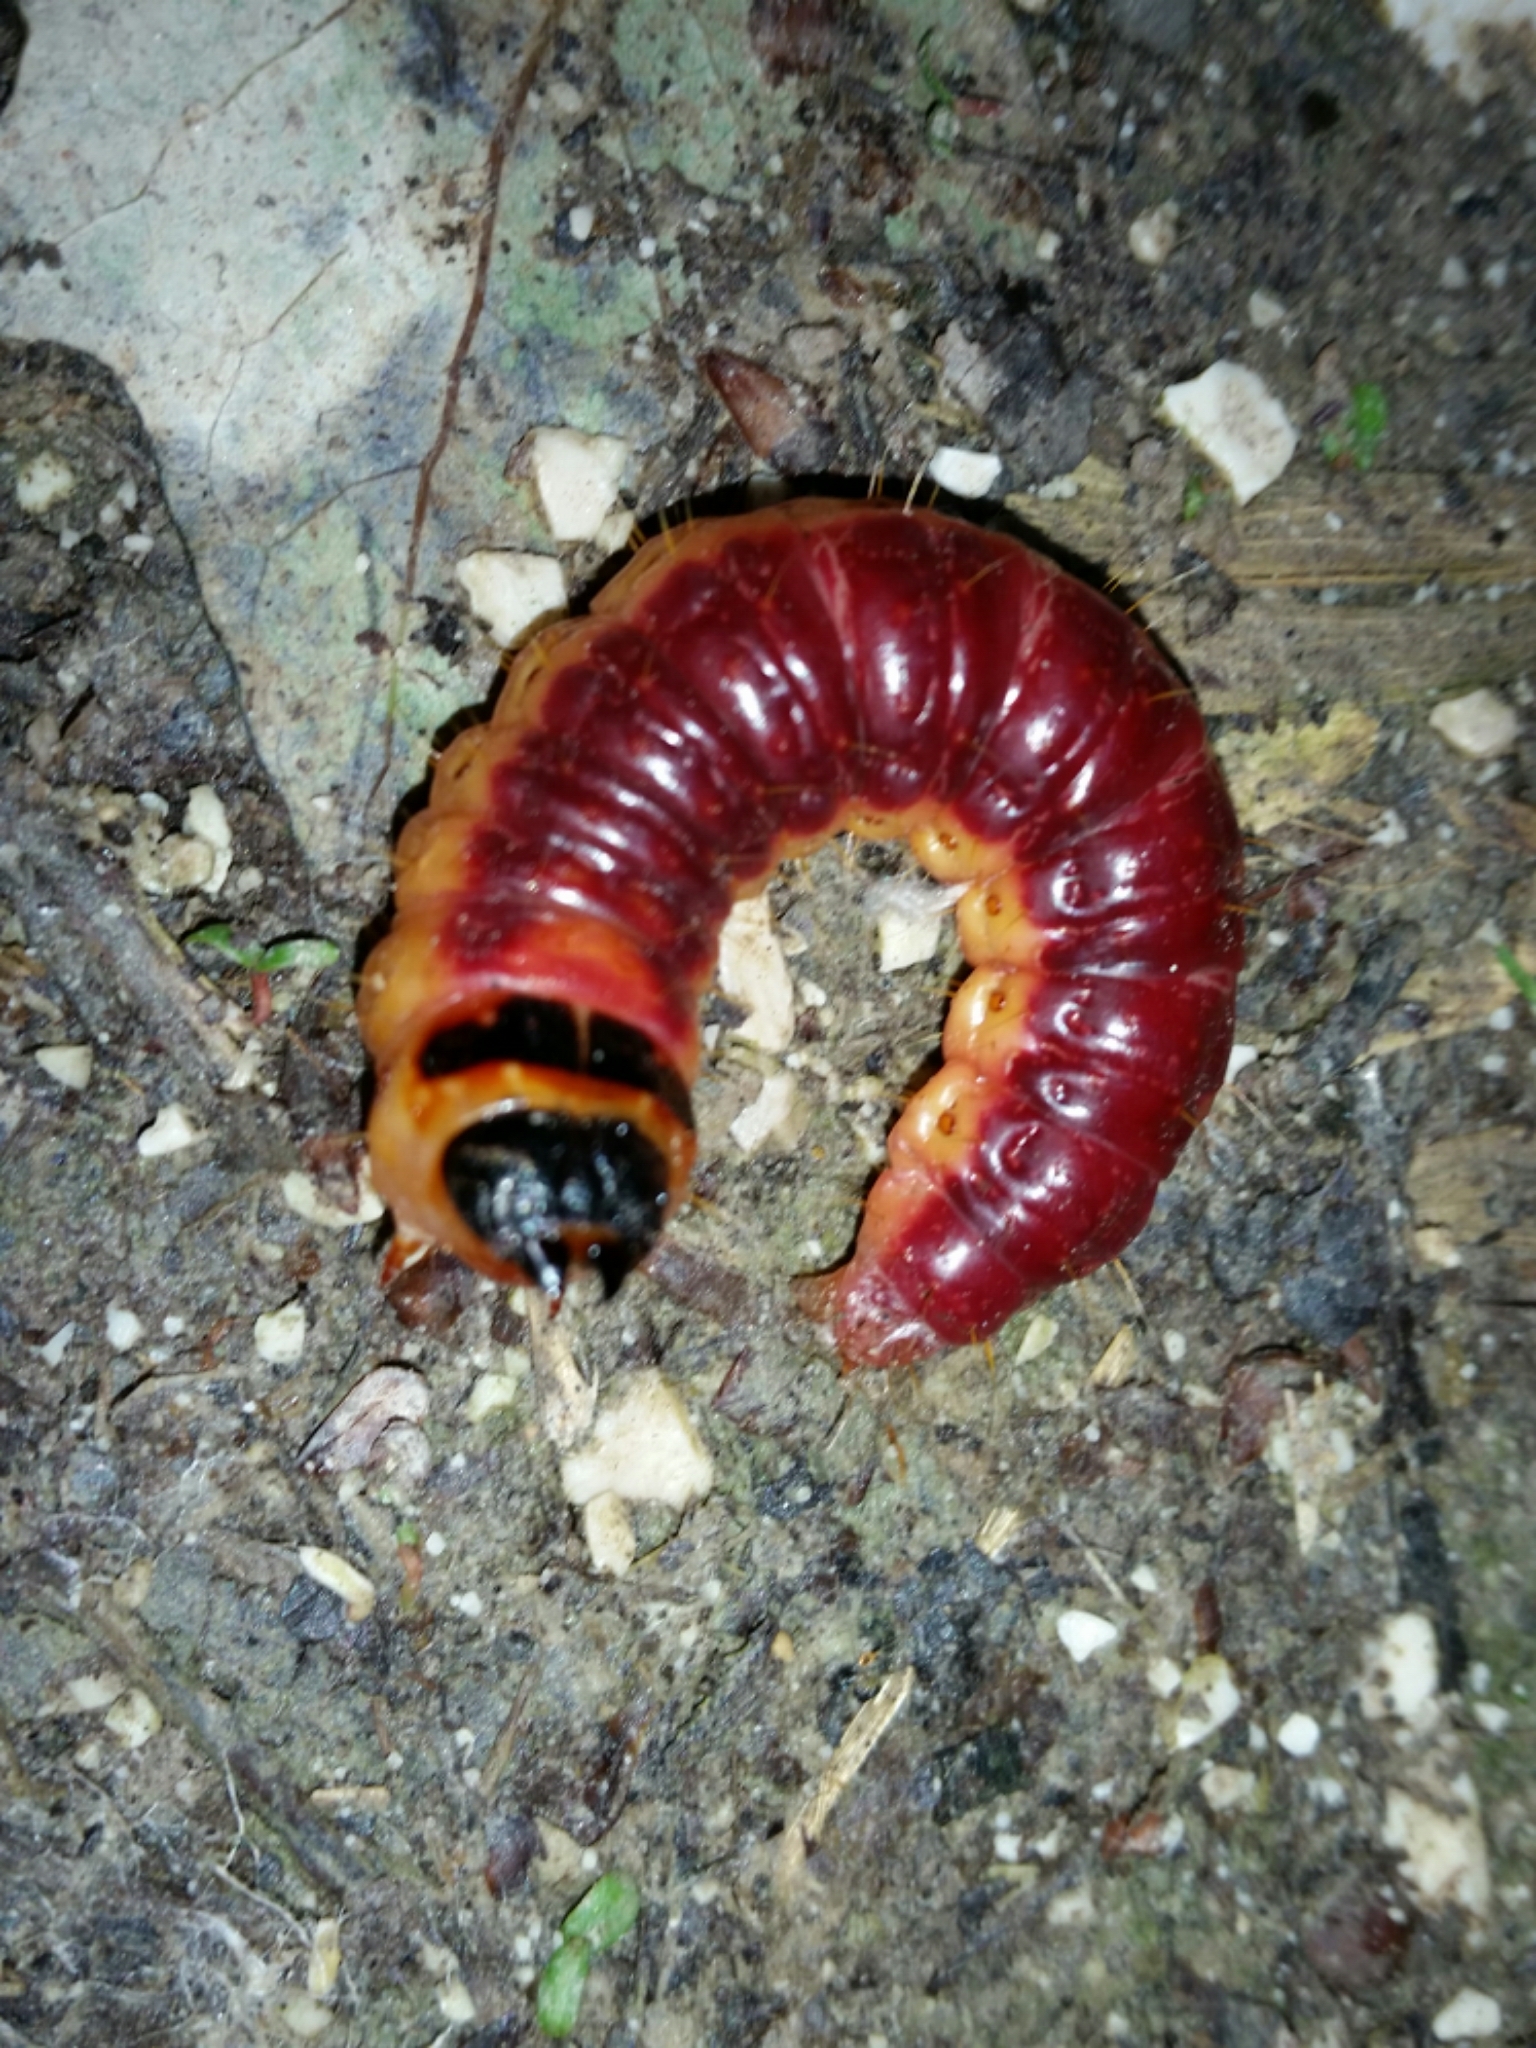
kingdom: Animalia
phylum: Arthropoda
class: Insecta
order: Lepidoptera
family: Cossidae
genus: Cossus
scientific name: Cossus cossus
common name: Goat moth
